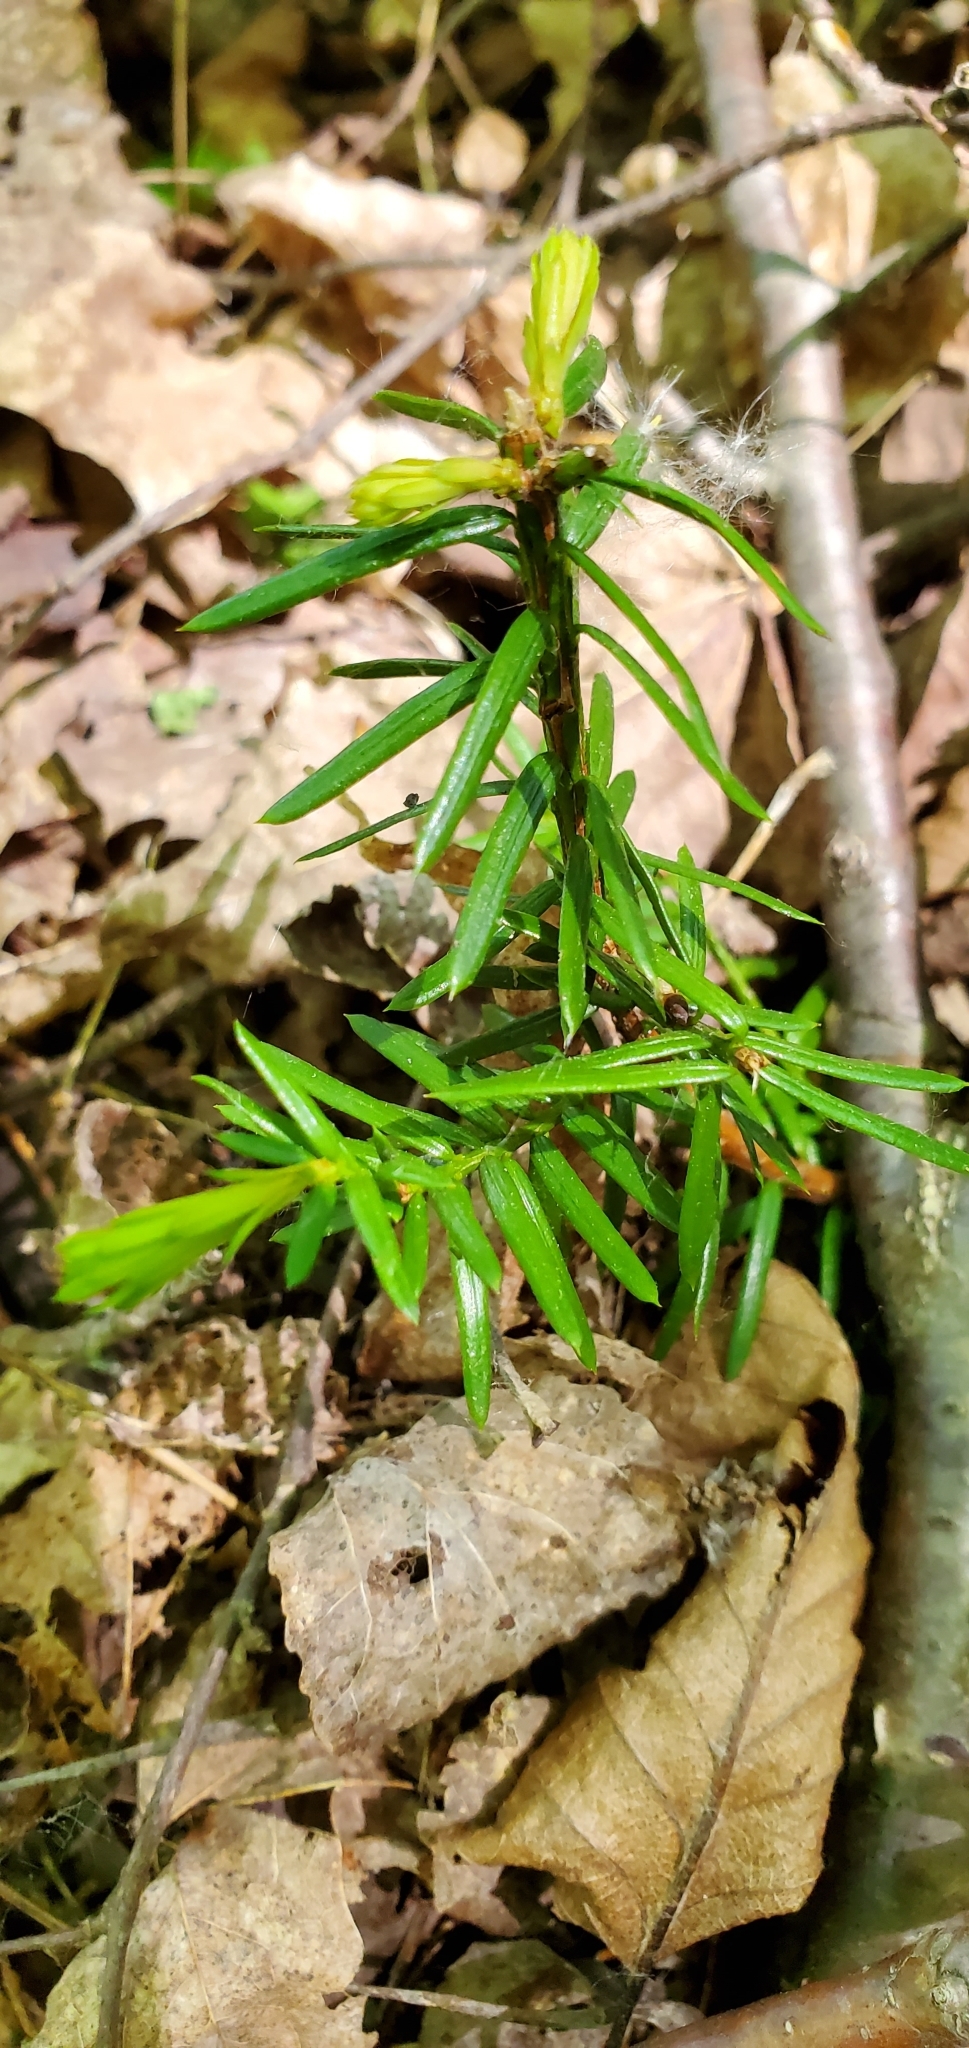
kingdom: Plantae
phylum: Tracheophyta
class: Pinopsida
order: Pinales
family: Taxaceae
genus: Taxus
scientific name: Taxus canadensis
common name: American yew
